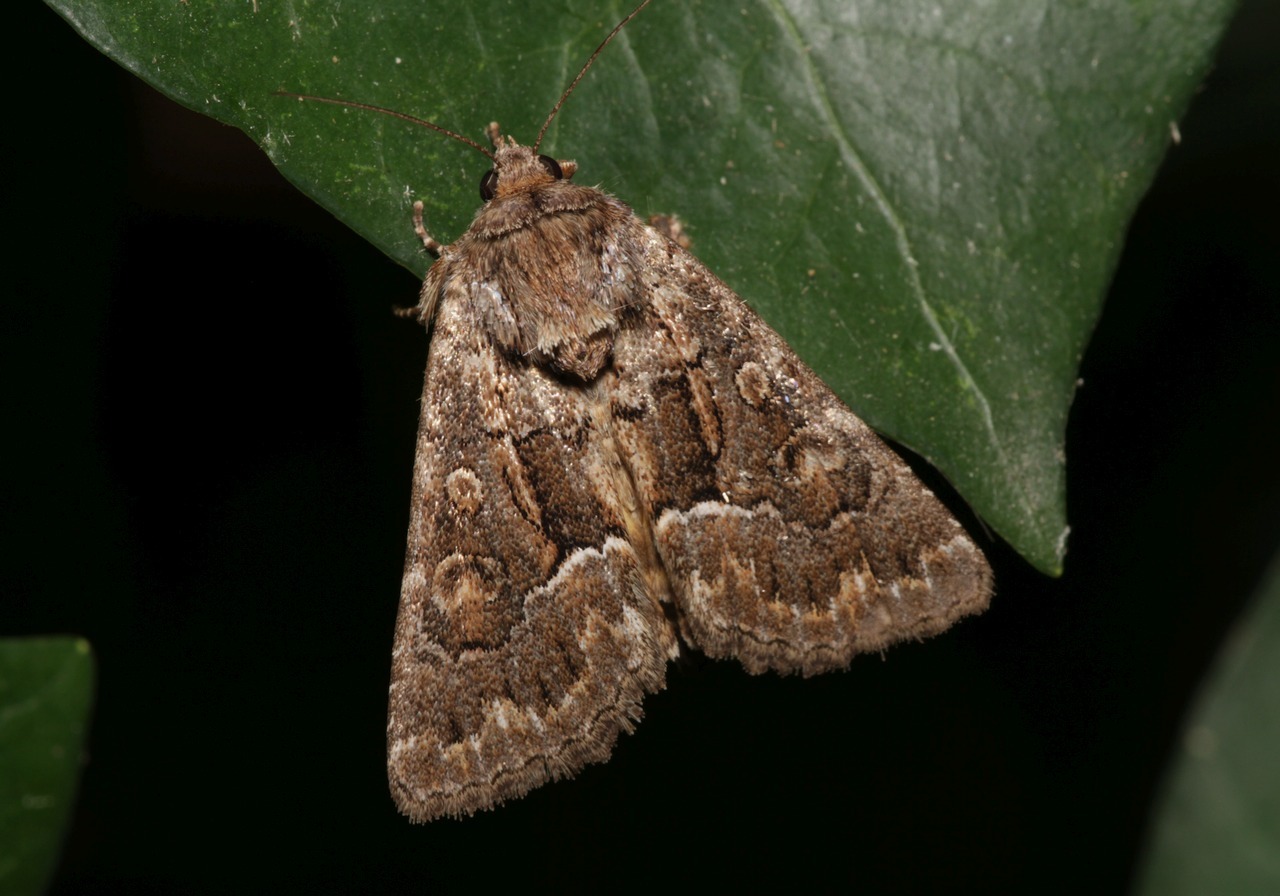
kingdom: Animalia
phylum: Arthropoda
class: Insecta
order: Lepidoptera
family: Noctuidae
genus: Thalpophila
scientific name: Thalpophila matura
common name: Straw underwing
